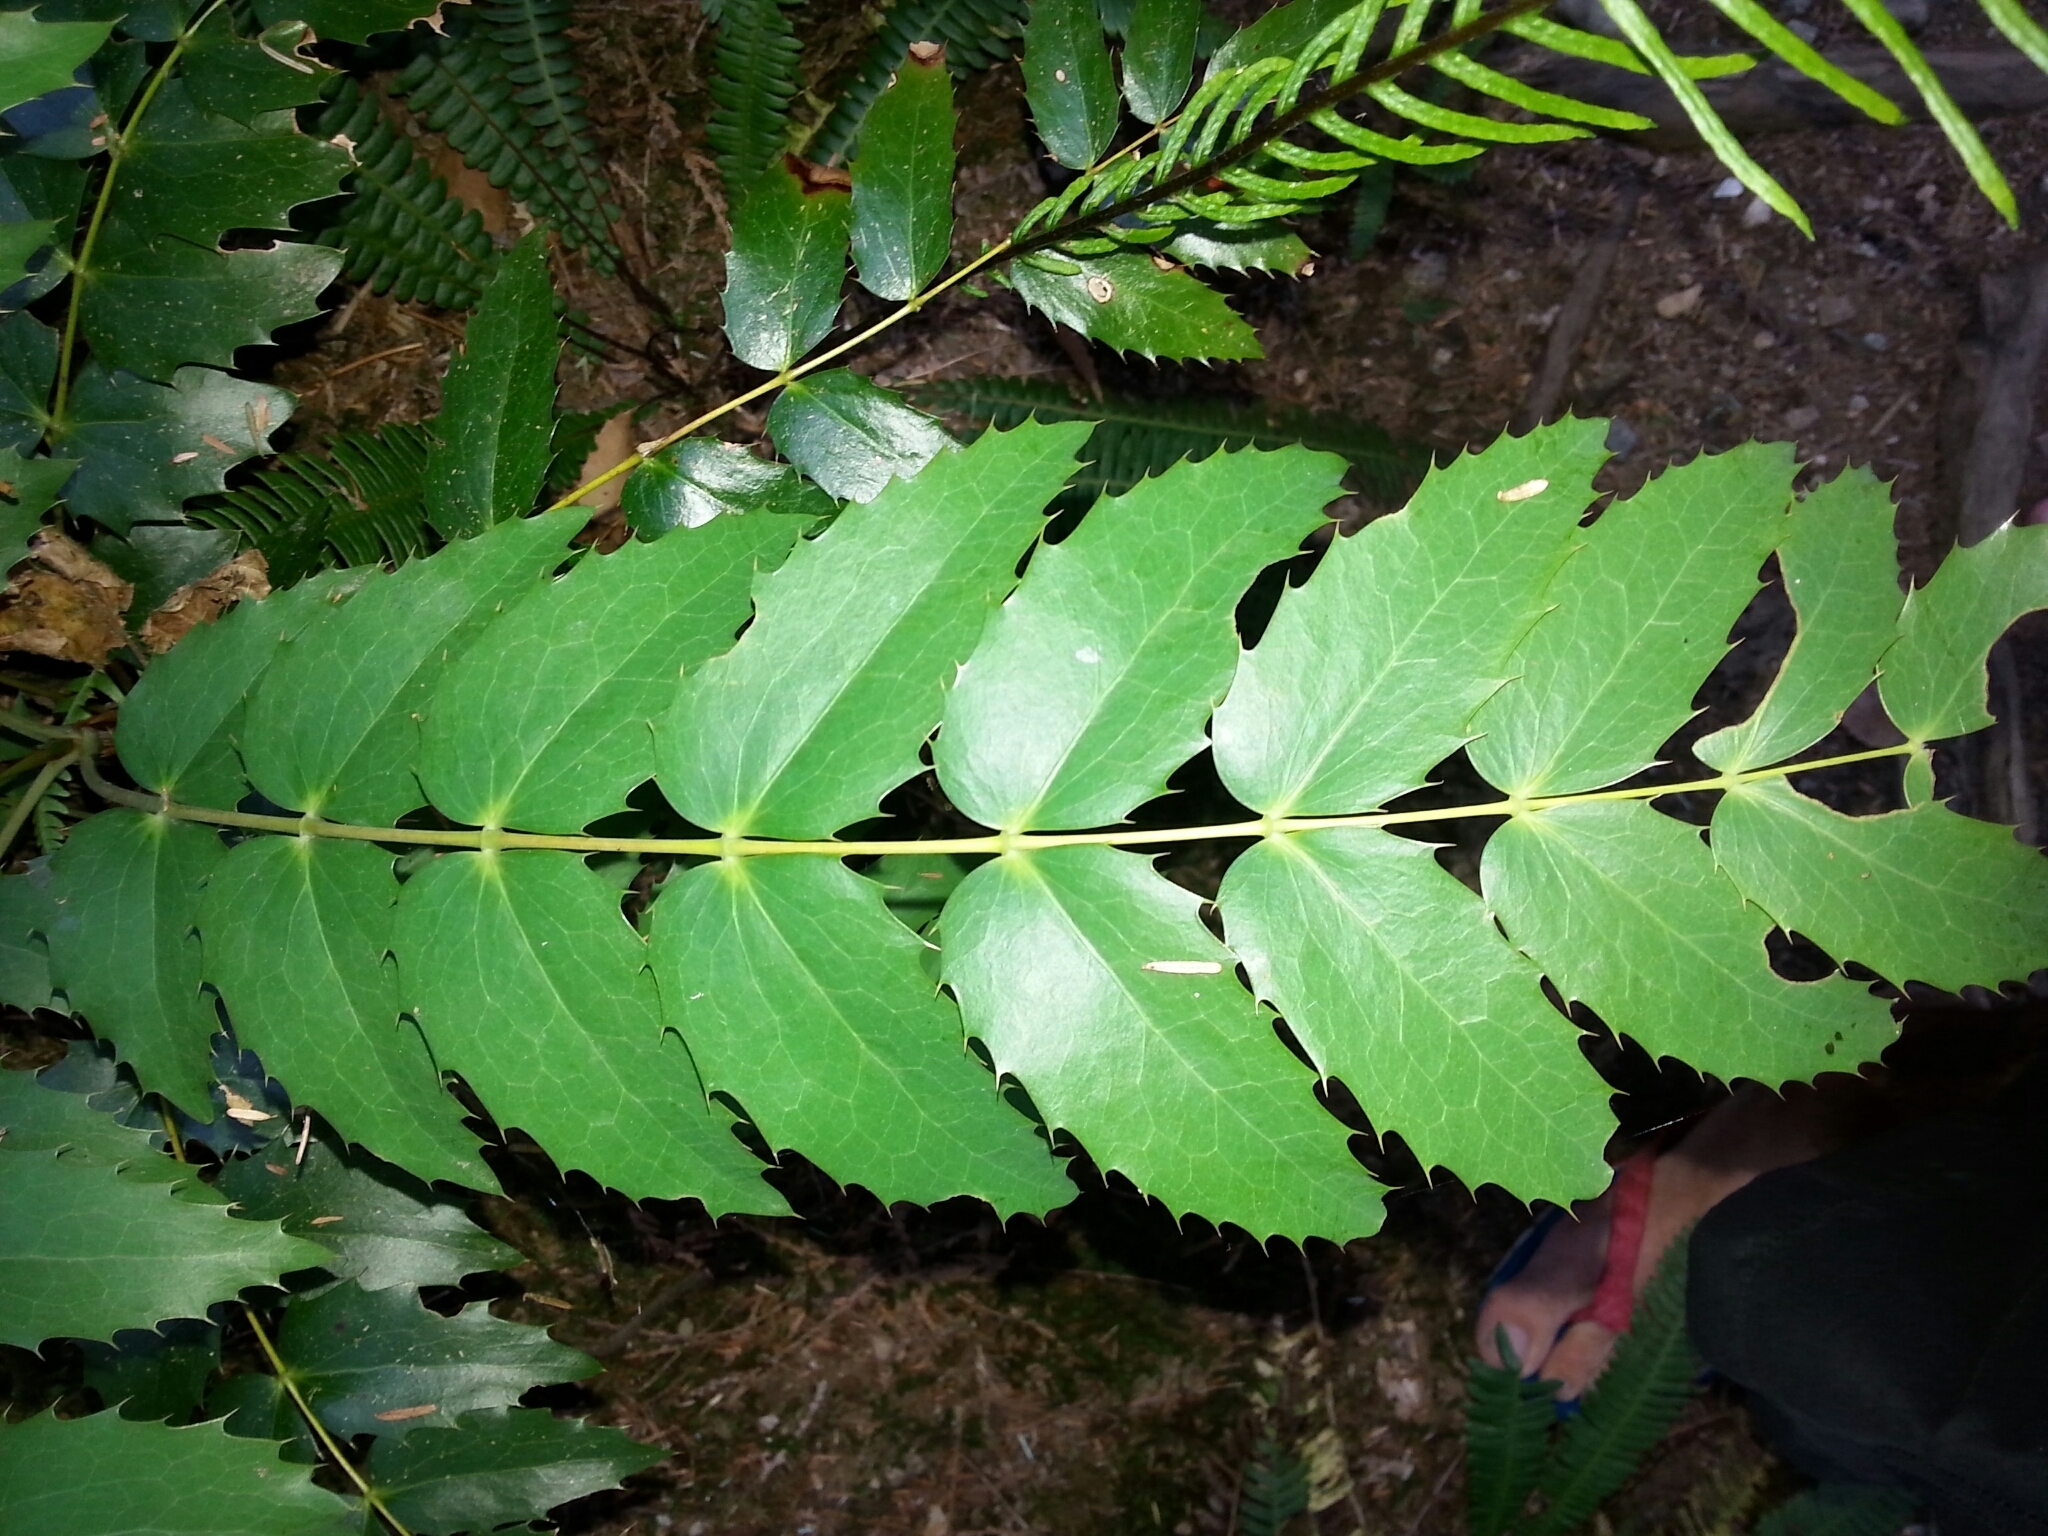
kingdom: Plantae
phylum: Tracheophyta
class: Magnoliopsida
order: Ranunculales
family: Berberidaceae
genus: Mahonia
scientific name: Mahonia nervosa
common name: Cascade oregon-grape
